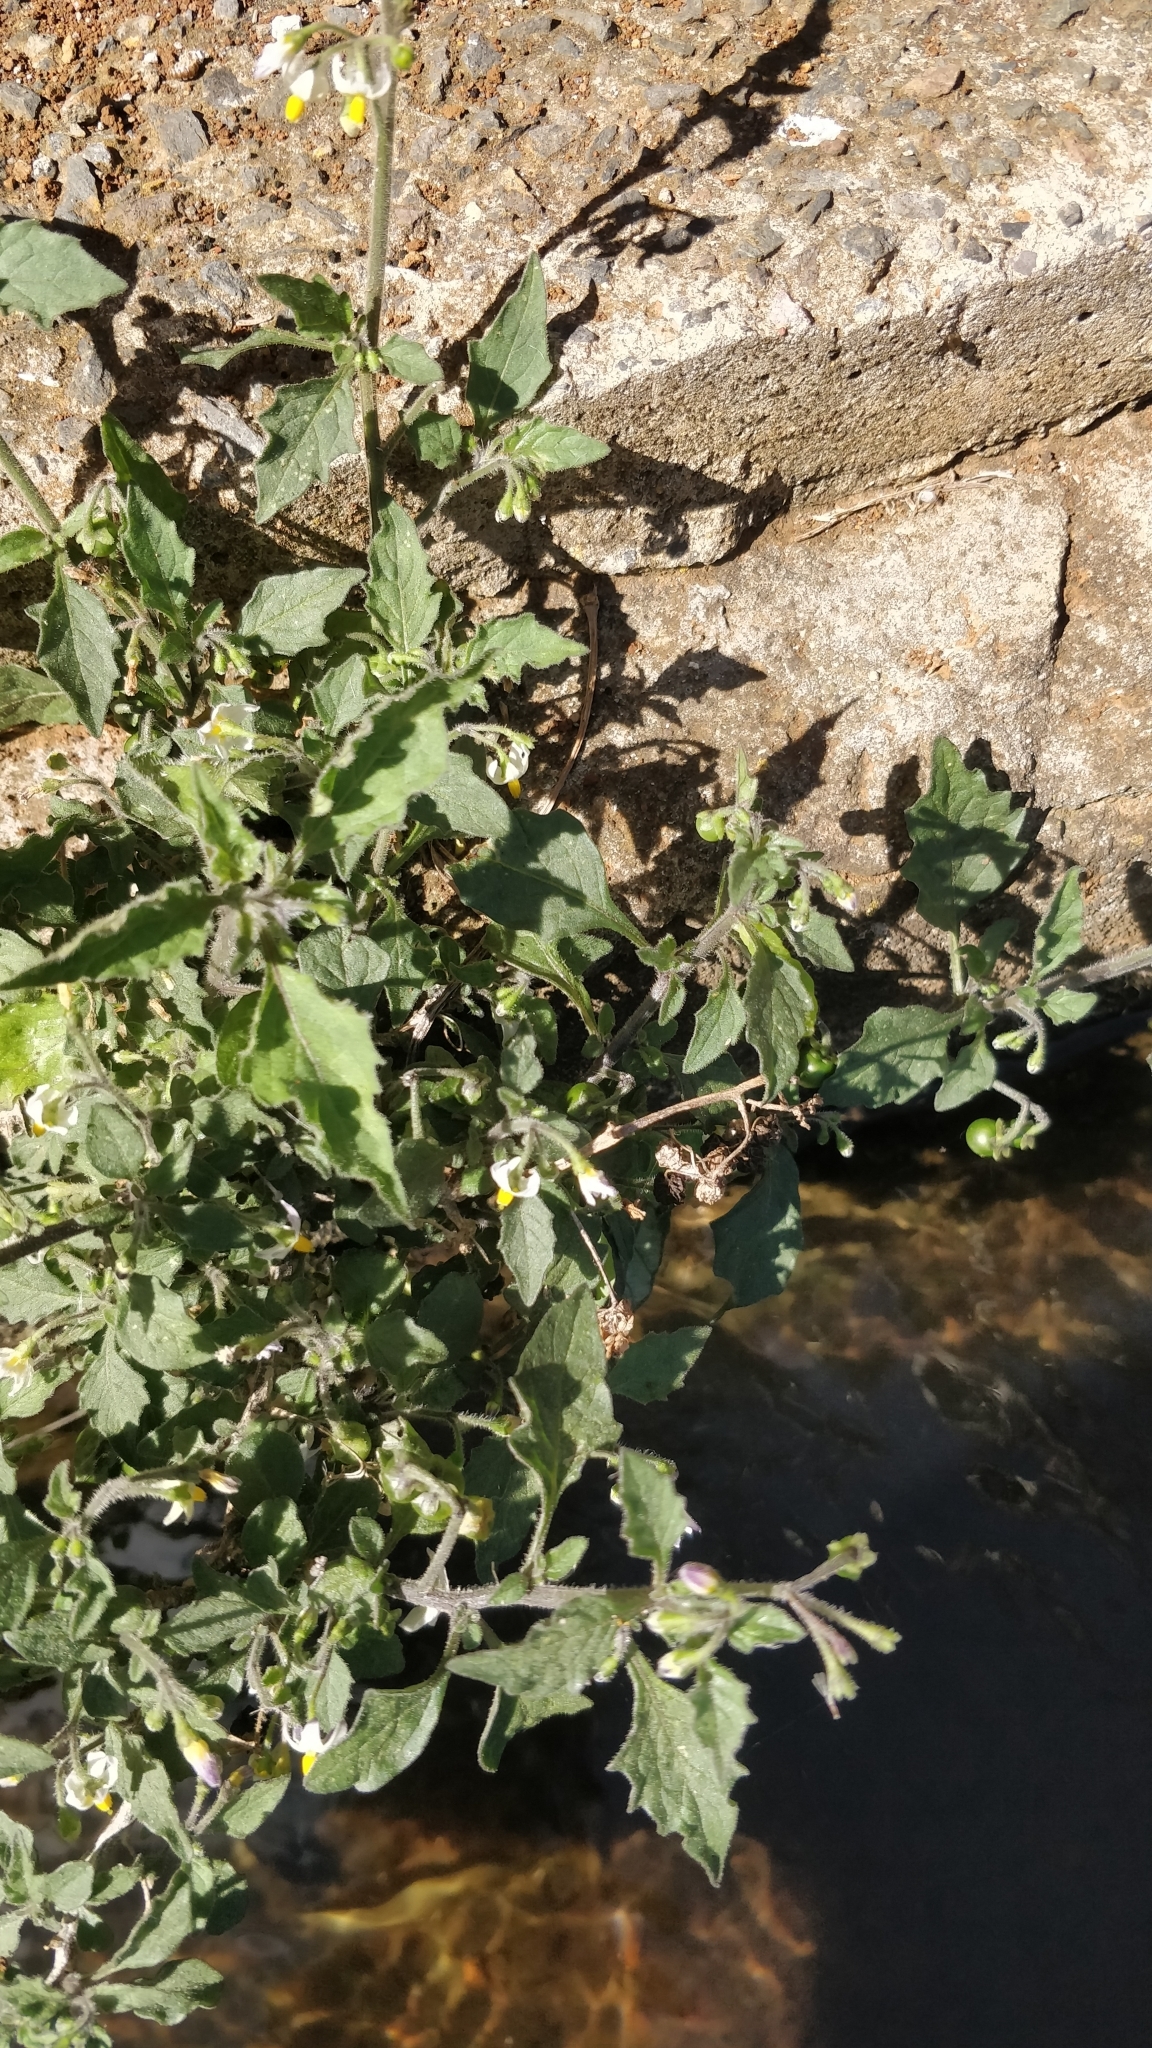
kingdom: Plantae
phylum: Tracheophyta
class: Magnoliopsida
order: Solanales
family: Solanaceae
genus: Solanum
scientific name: Solanum nigrum
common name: Black nightshade
